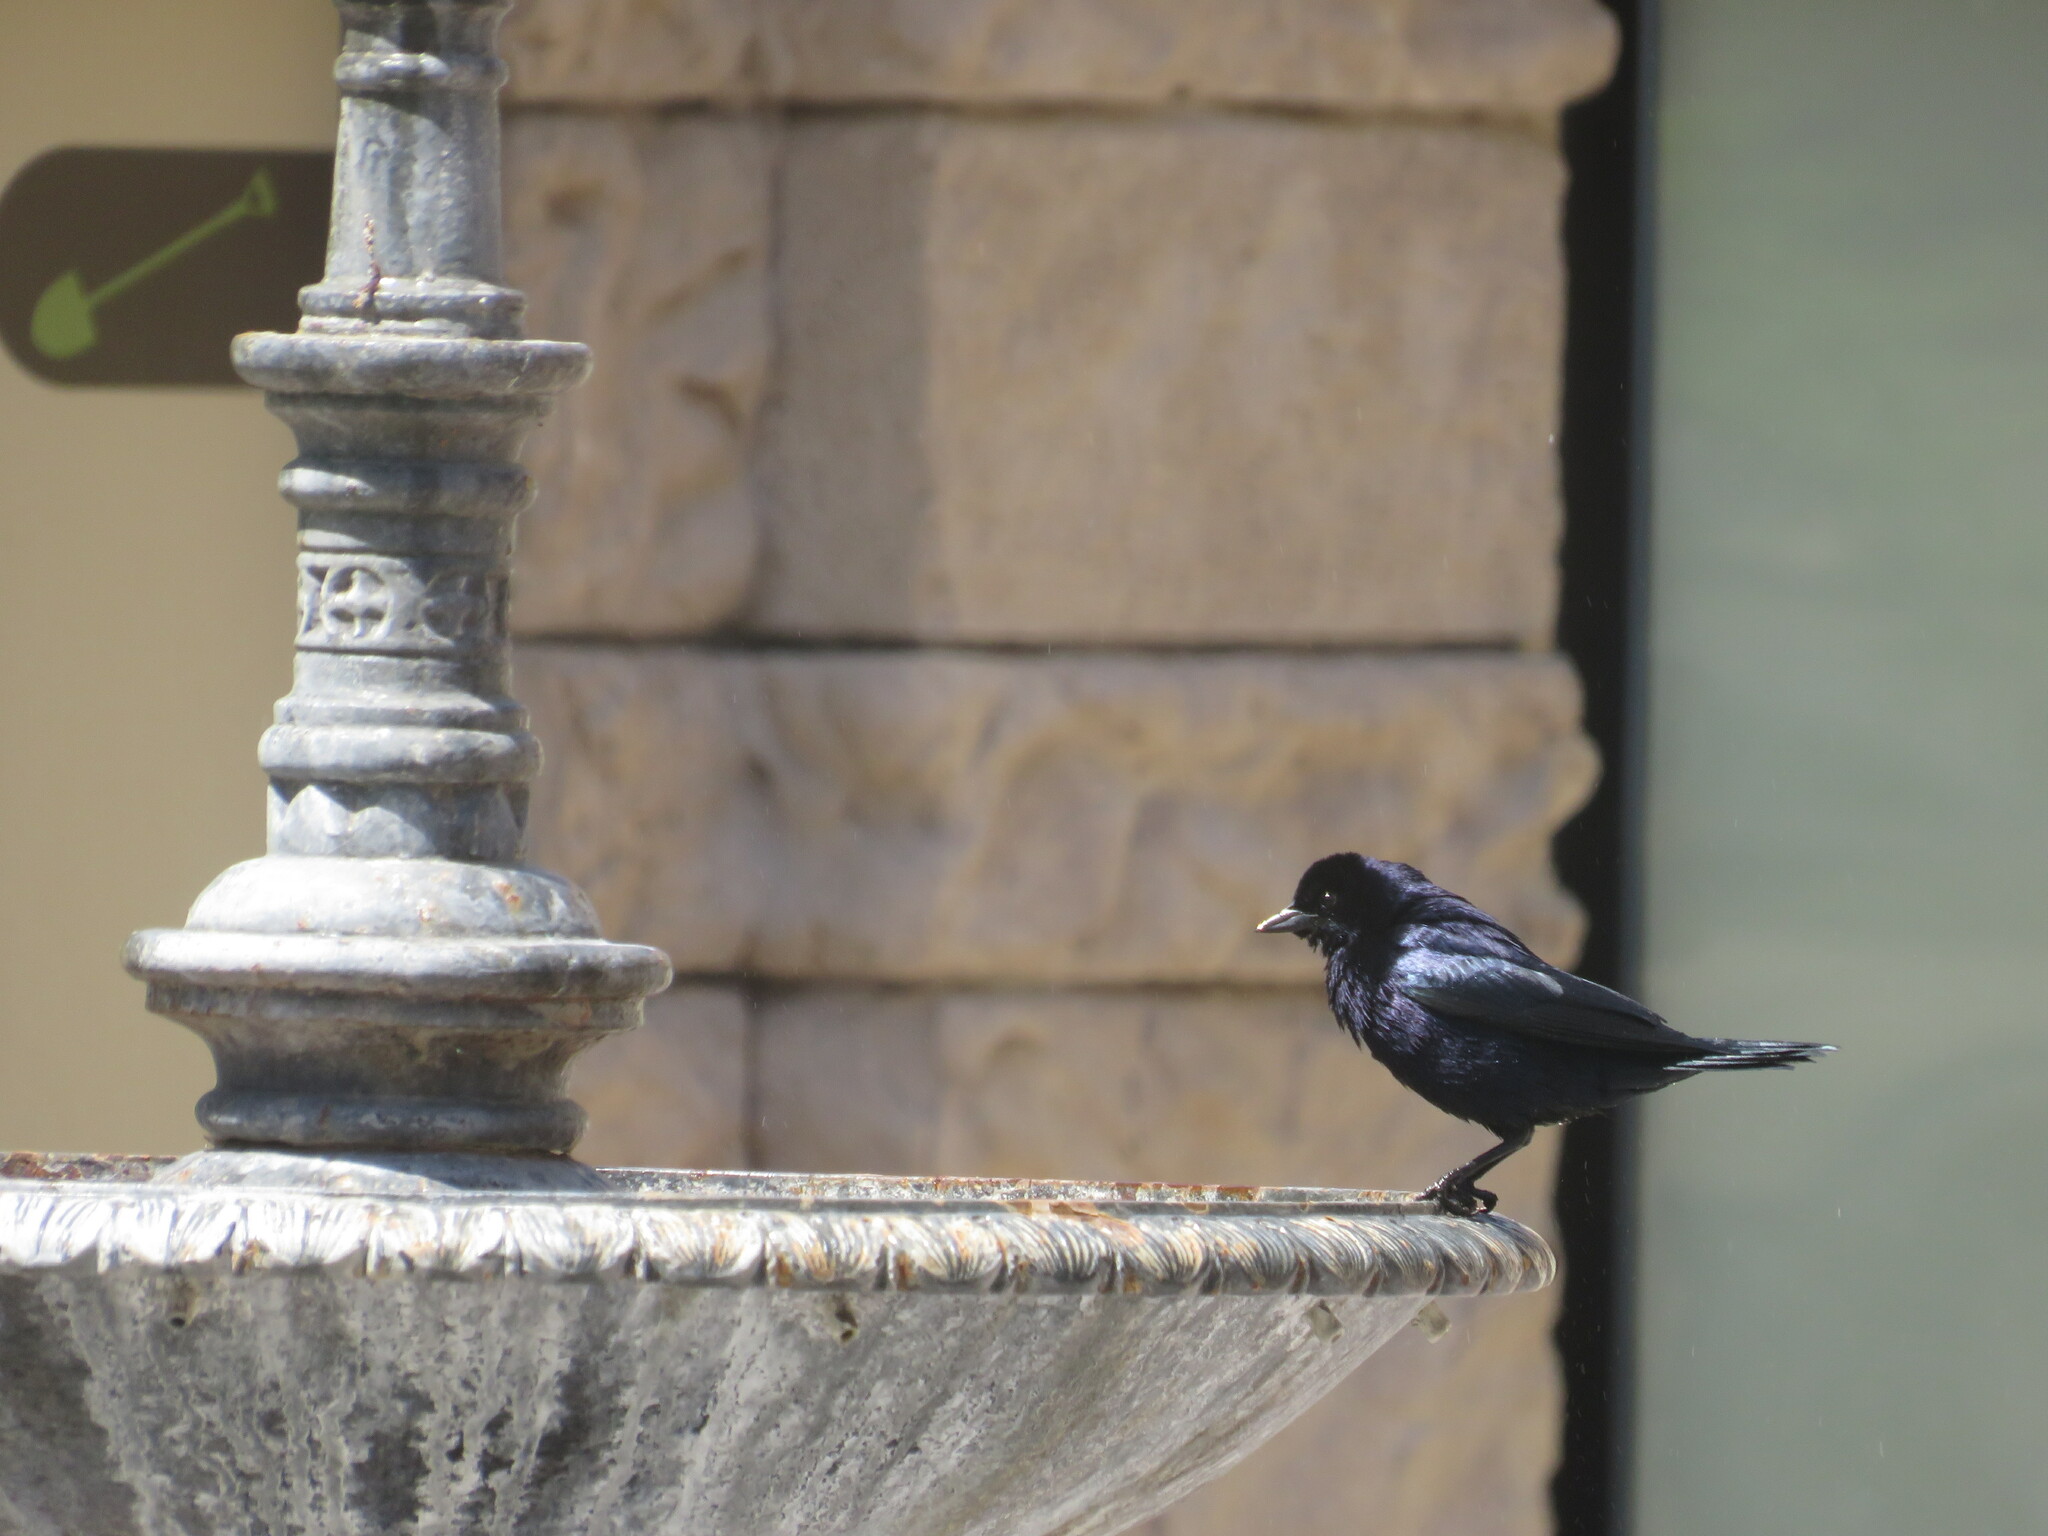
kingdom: Animalia
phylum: Chordata
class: Aves
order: Passeriformes
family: Icteridae
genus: Molothrus
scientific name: Molothrus bonariensis
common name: Shiny cowbird
